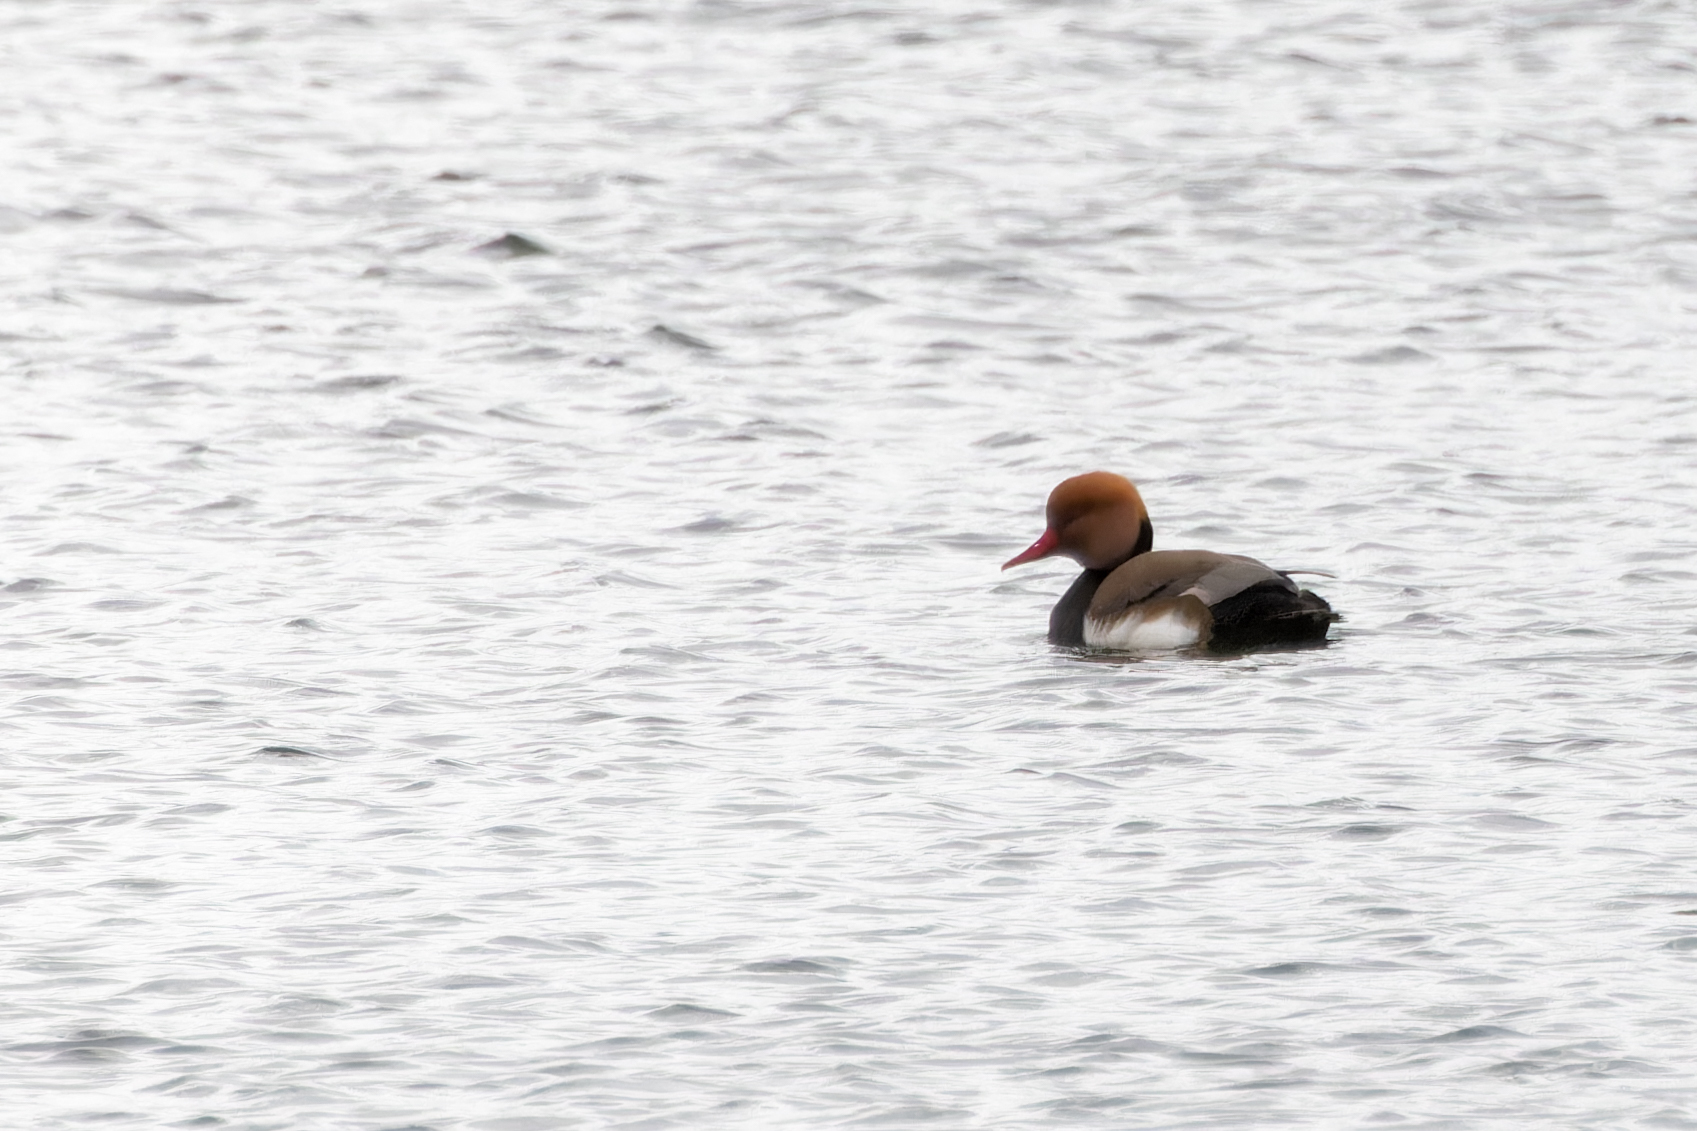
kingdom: Animalia
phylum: Chordata
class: Aves
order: Anseriformes
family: Anatidae
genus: Netta
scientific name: Netta rufina
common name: Red-crested pochard
